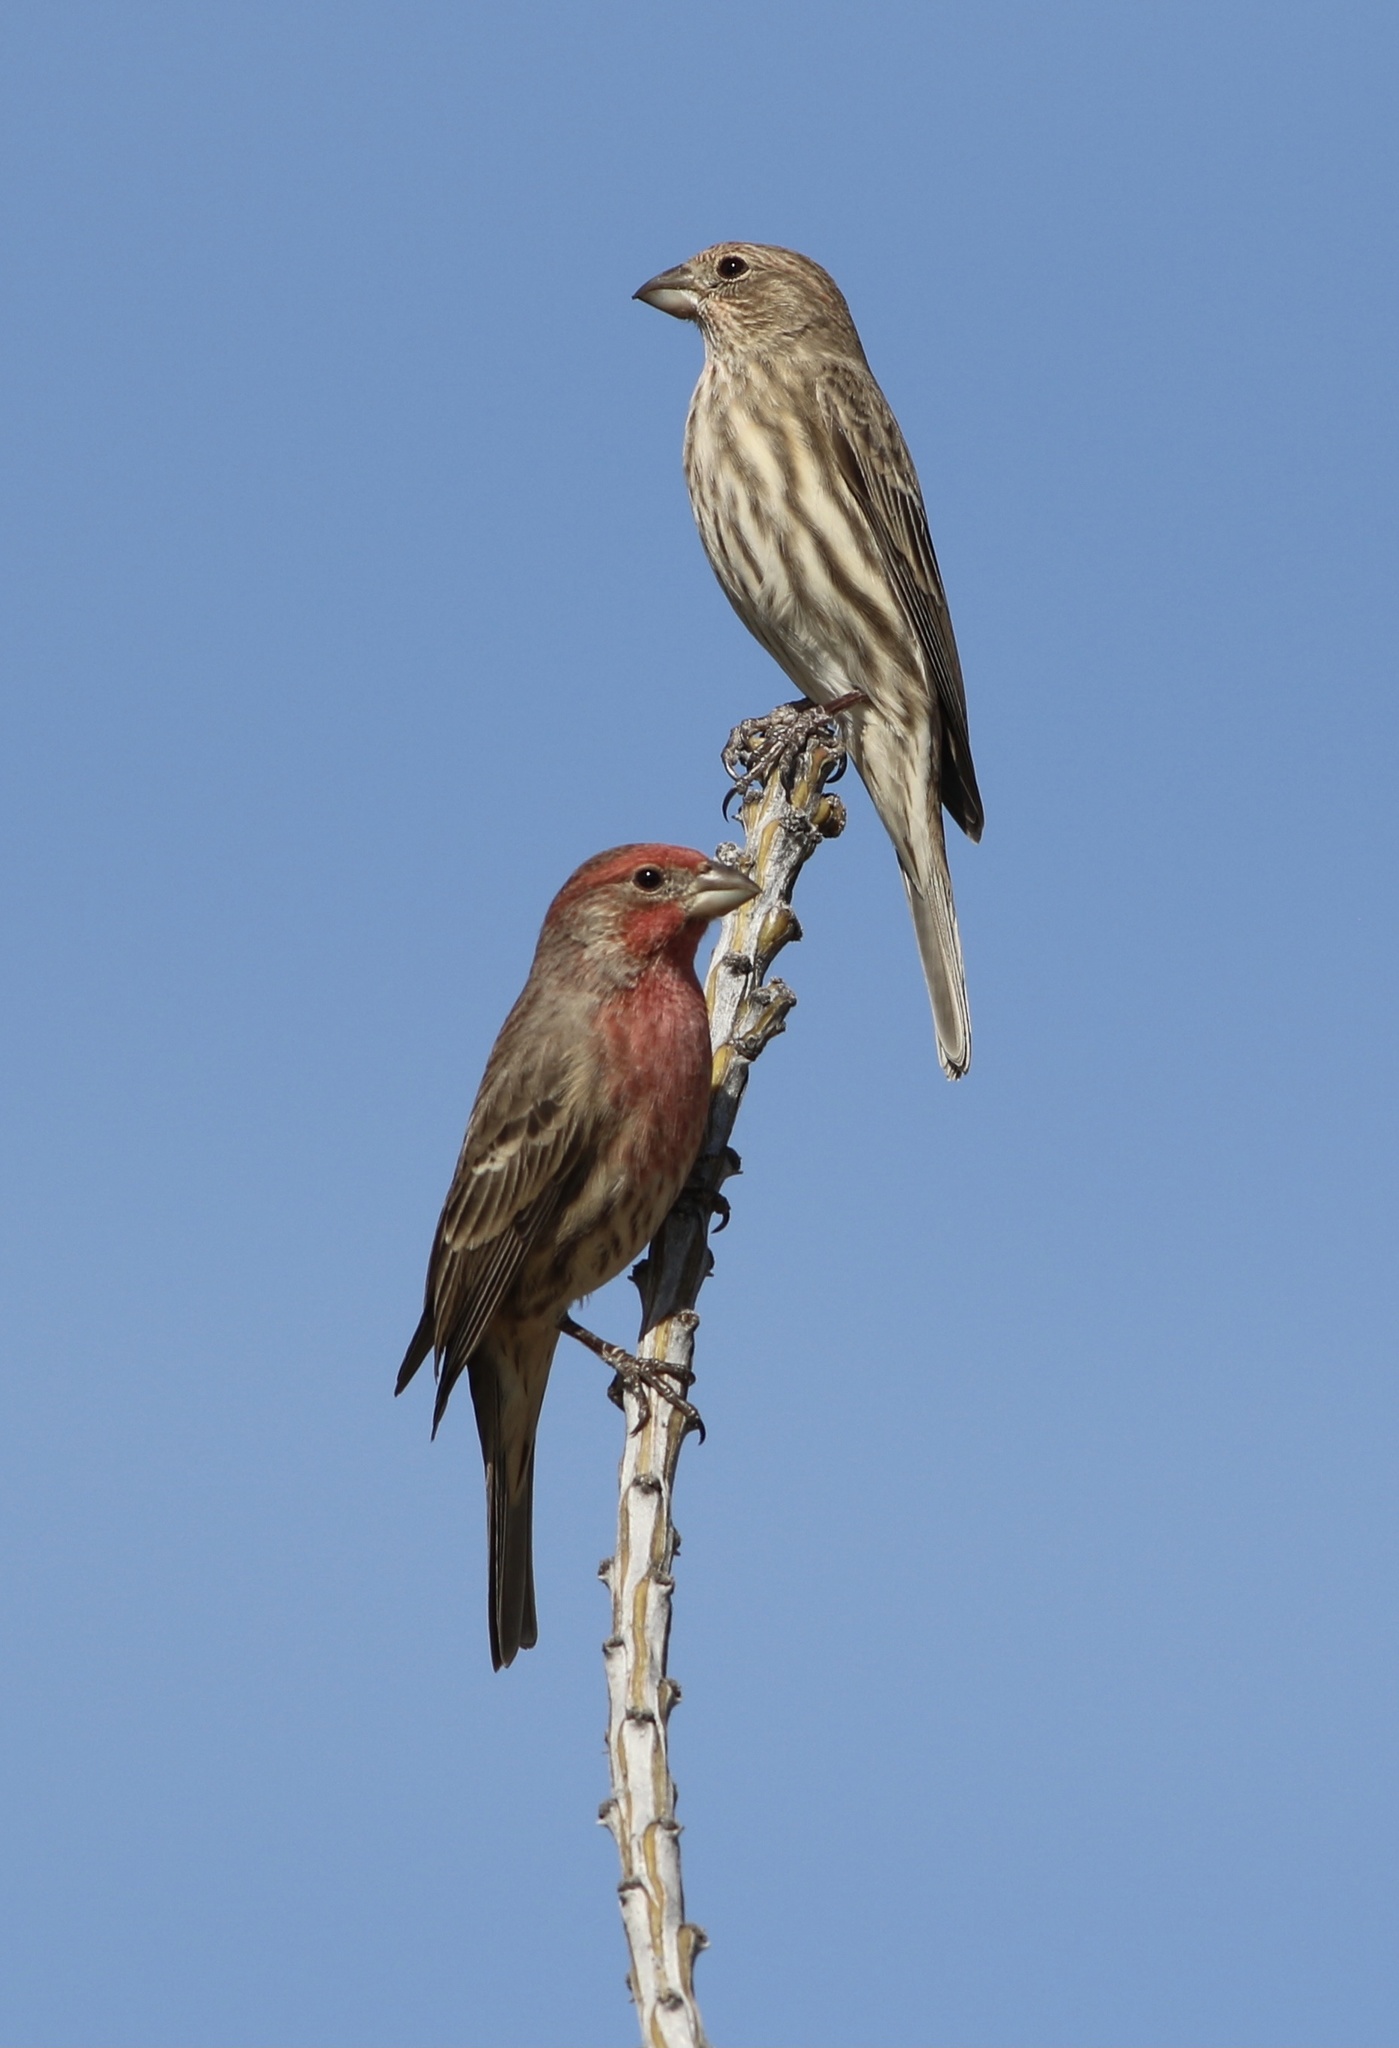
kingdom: Animalia
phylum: Chordata
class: Aves
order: Passeriformes
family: Fringillidae
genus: Haemorhous
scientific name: Haemorhous mexicanus
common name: House finch
